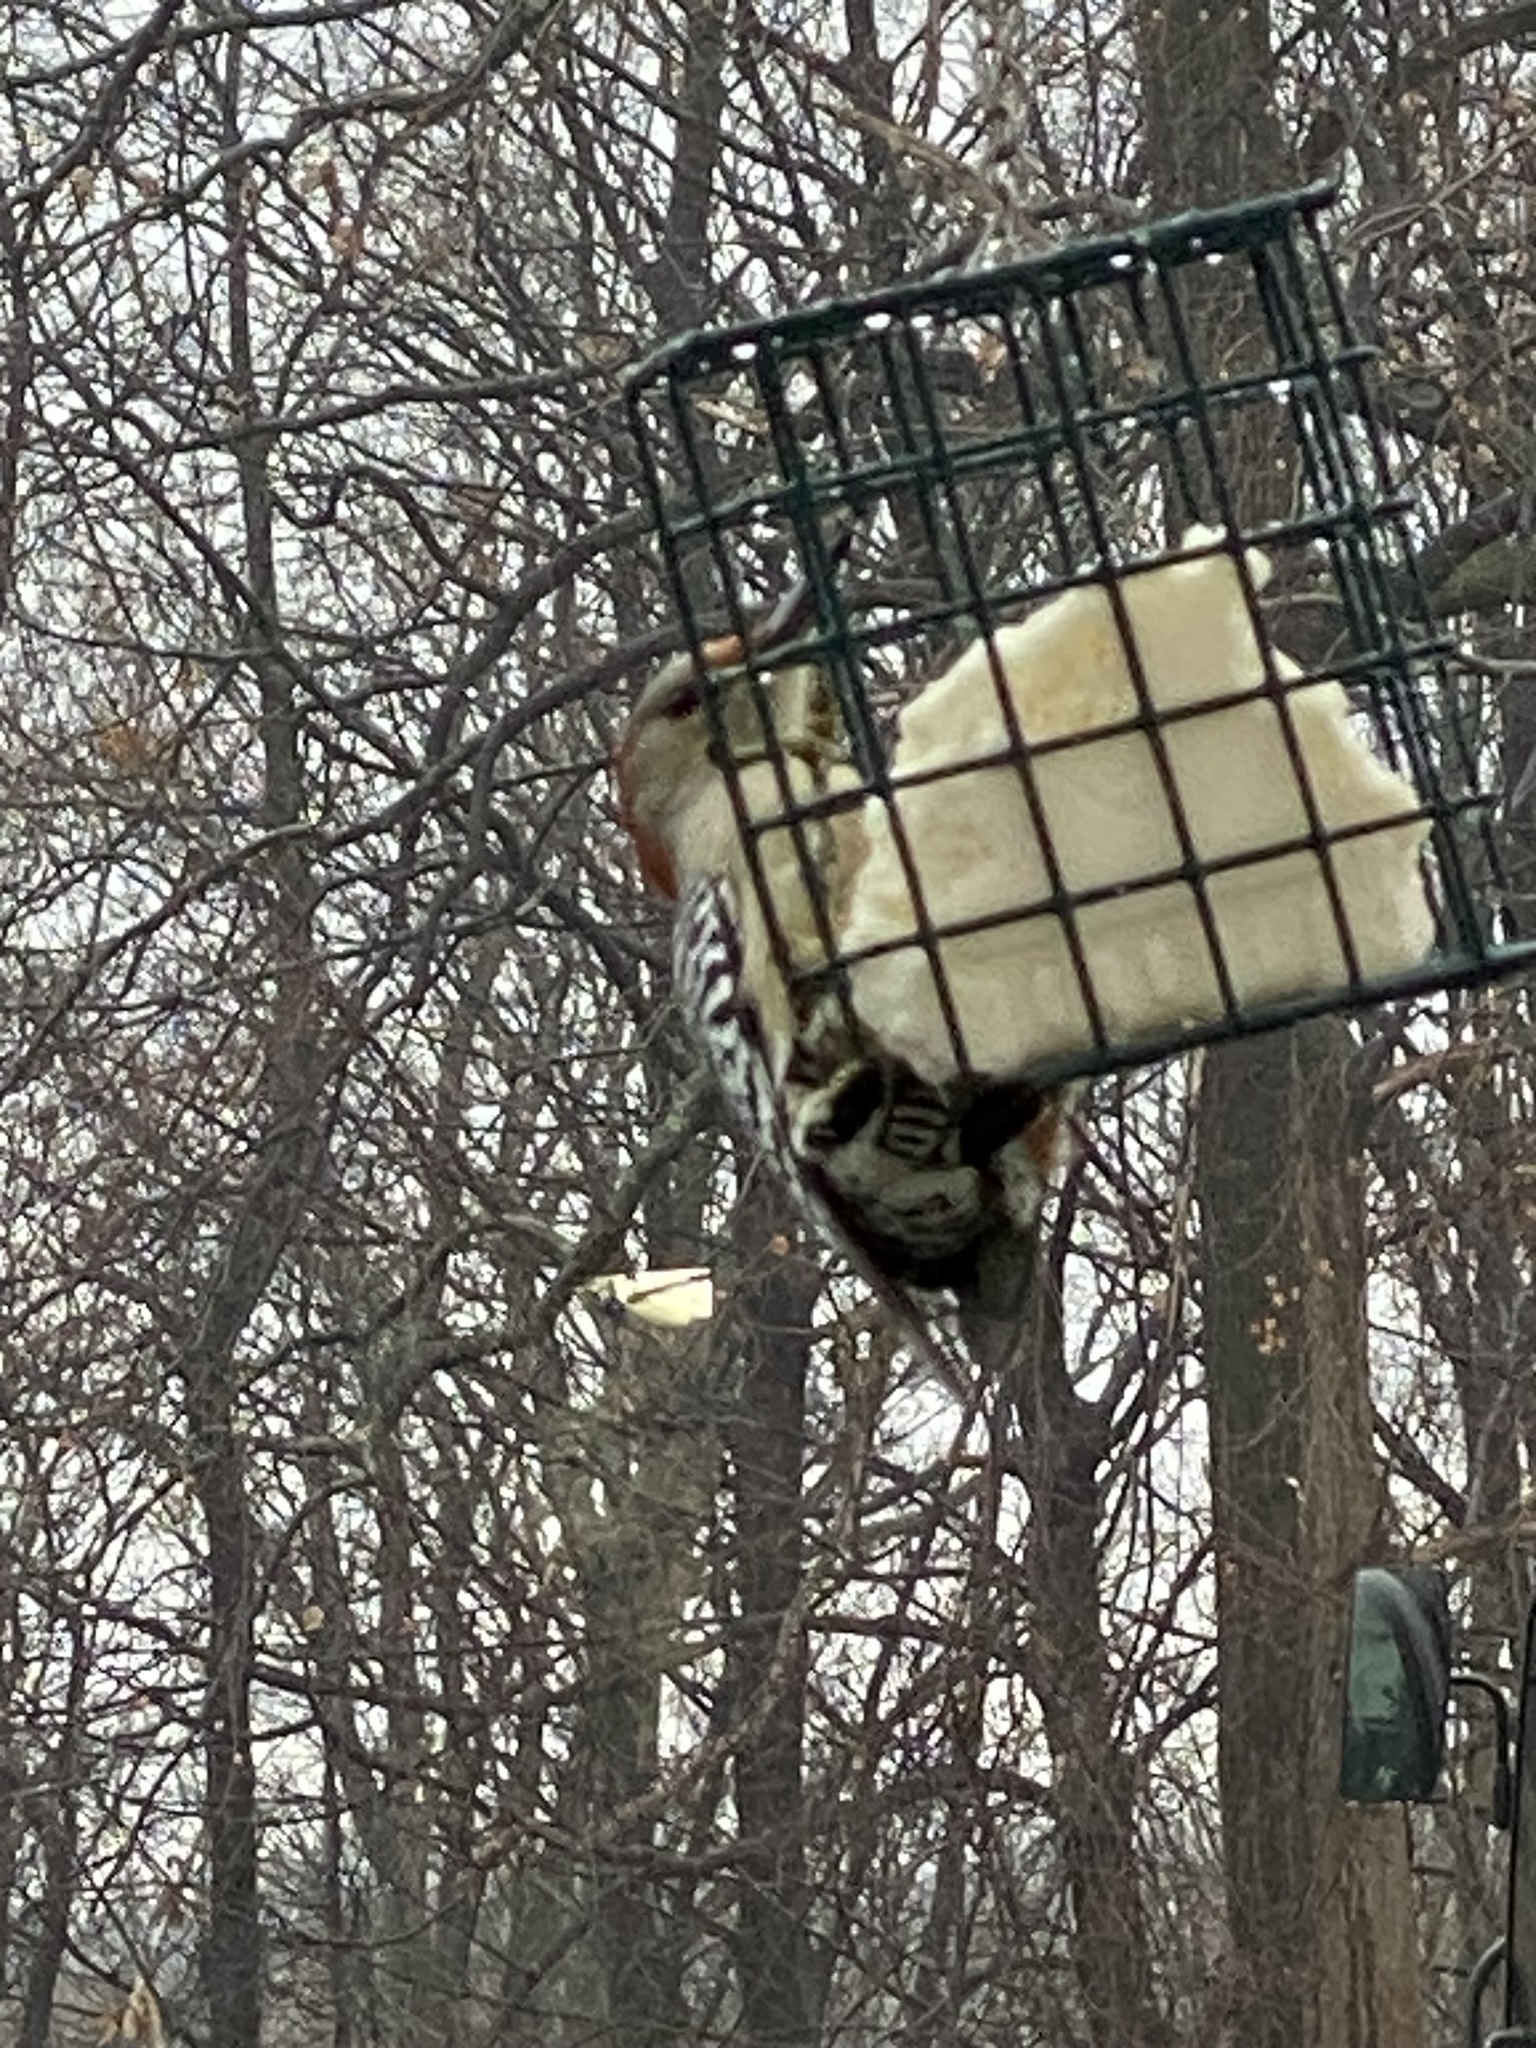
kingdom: Animalia
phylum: Chordata
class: Aves
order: Piciformes
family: Picidae
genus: Melanerpes
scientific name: Melanerpes carolinus
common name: Red-bellied woodpecker
